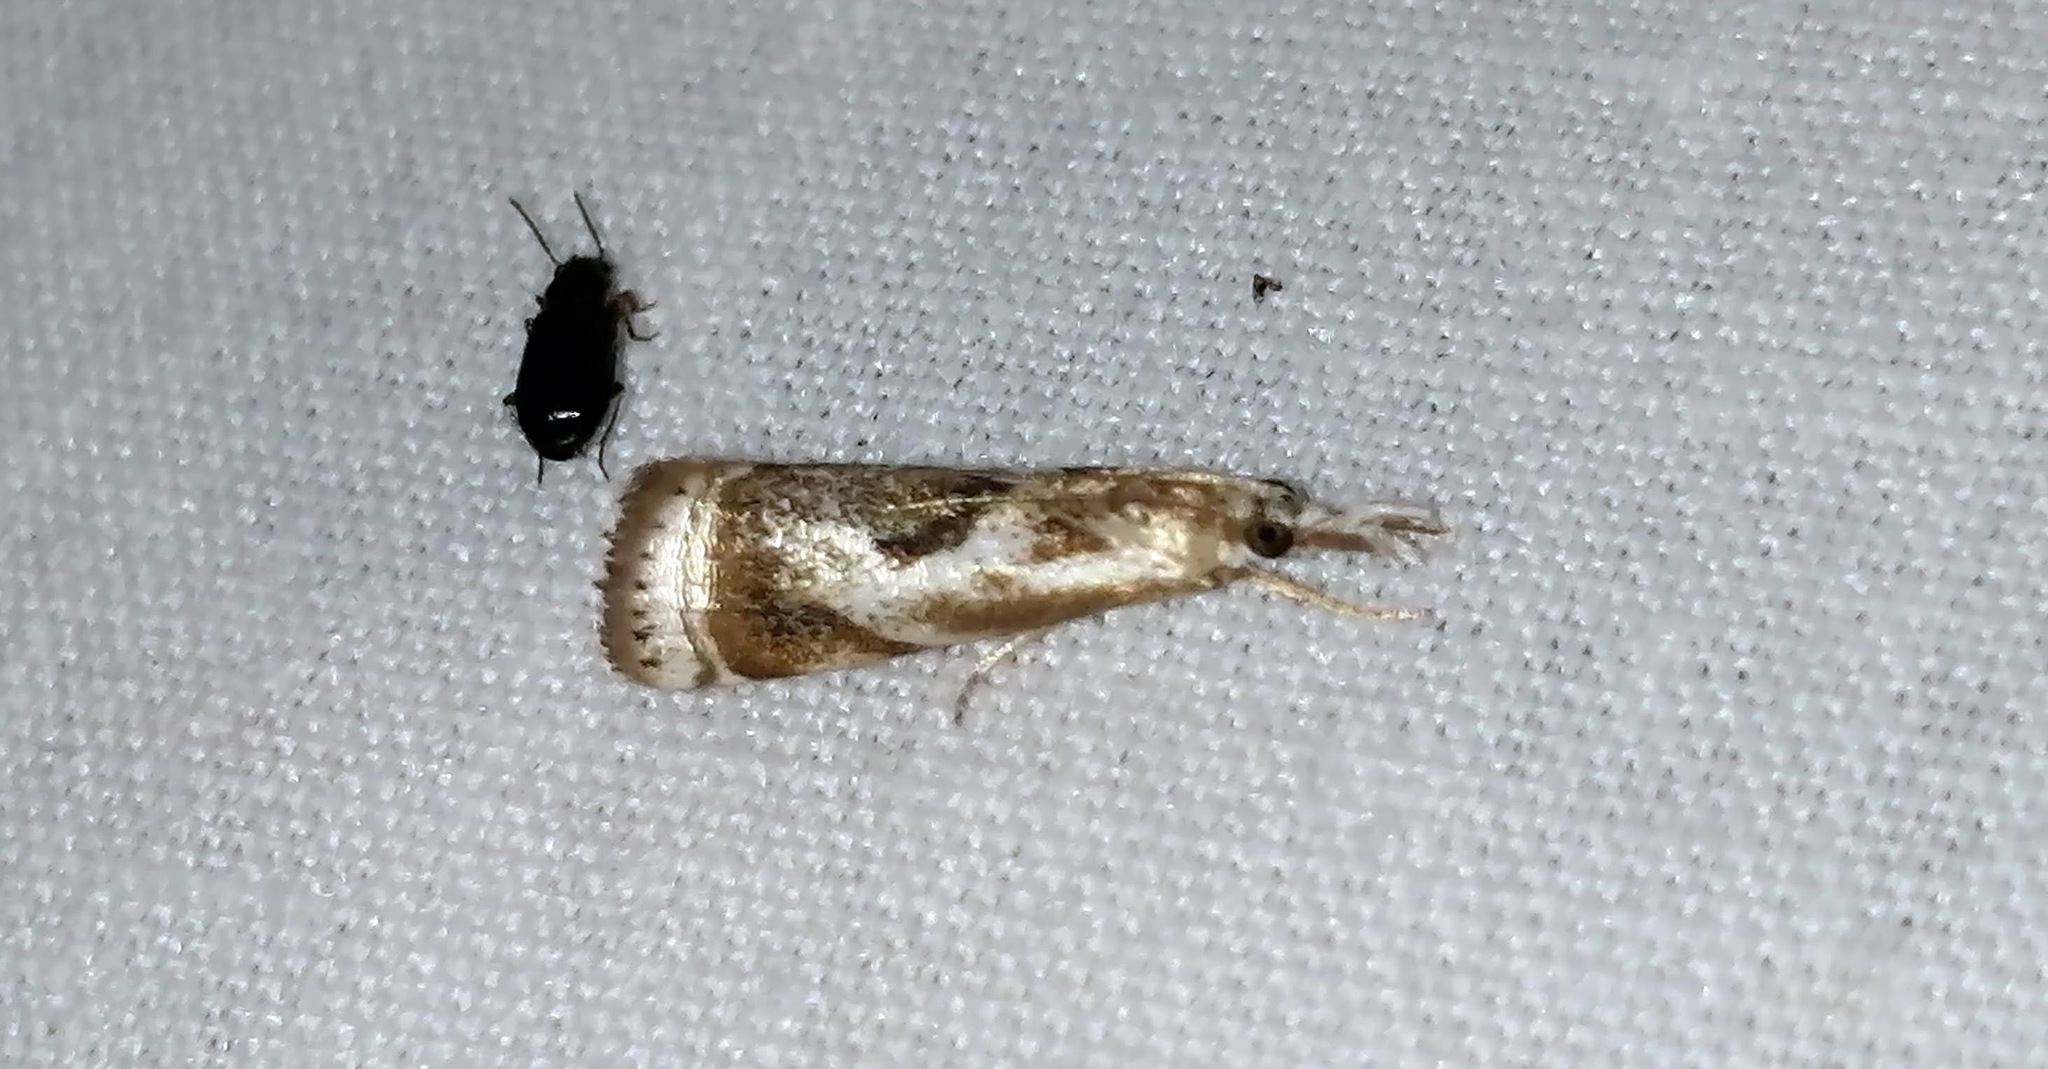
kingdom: Animalia
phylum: Arthropoda
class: Insecta
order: Lepidoptera
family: Crambidae
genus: Microcrambus
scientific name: Microcrambus elegans
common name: Elegant grass-veneer
